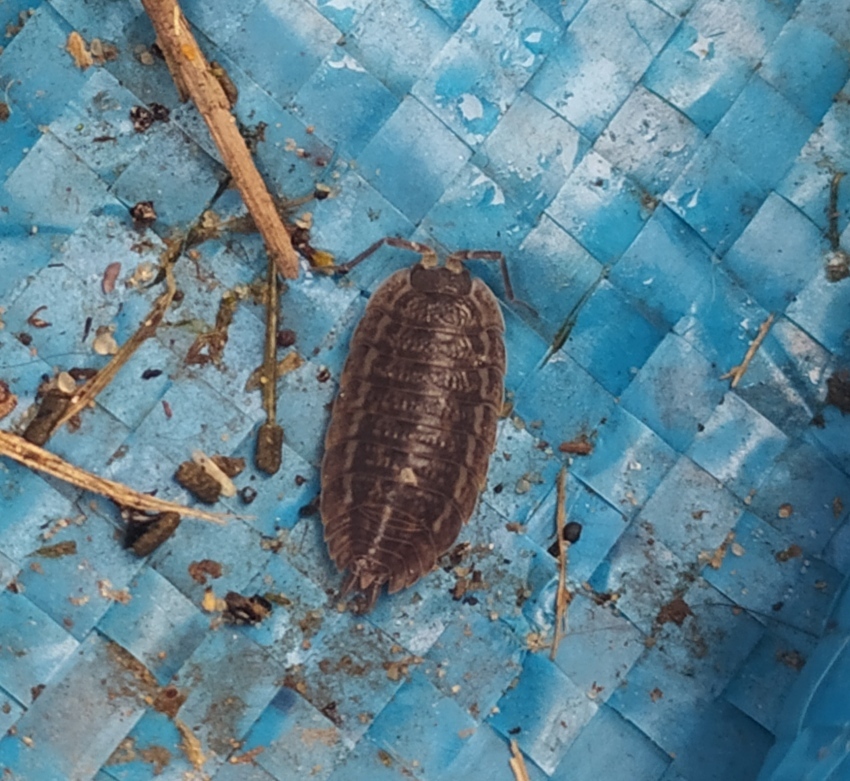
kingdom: Animalia
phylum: Arthropoda
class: Malacostraca
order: Isopoda
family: Trachelipodidae
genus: Trachelipus
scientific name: Trachelipus rathkii
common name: Isopod
